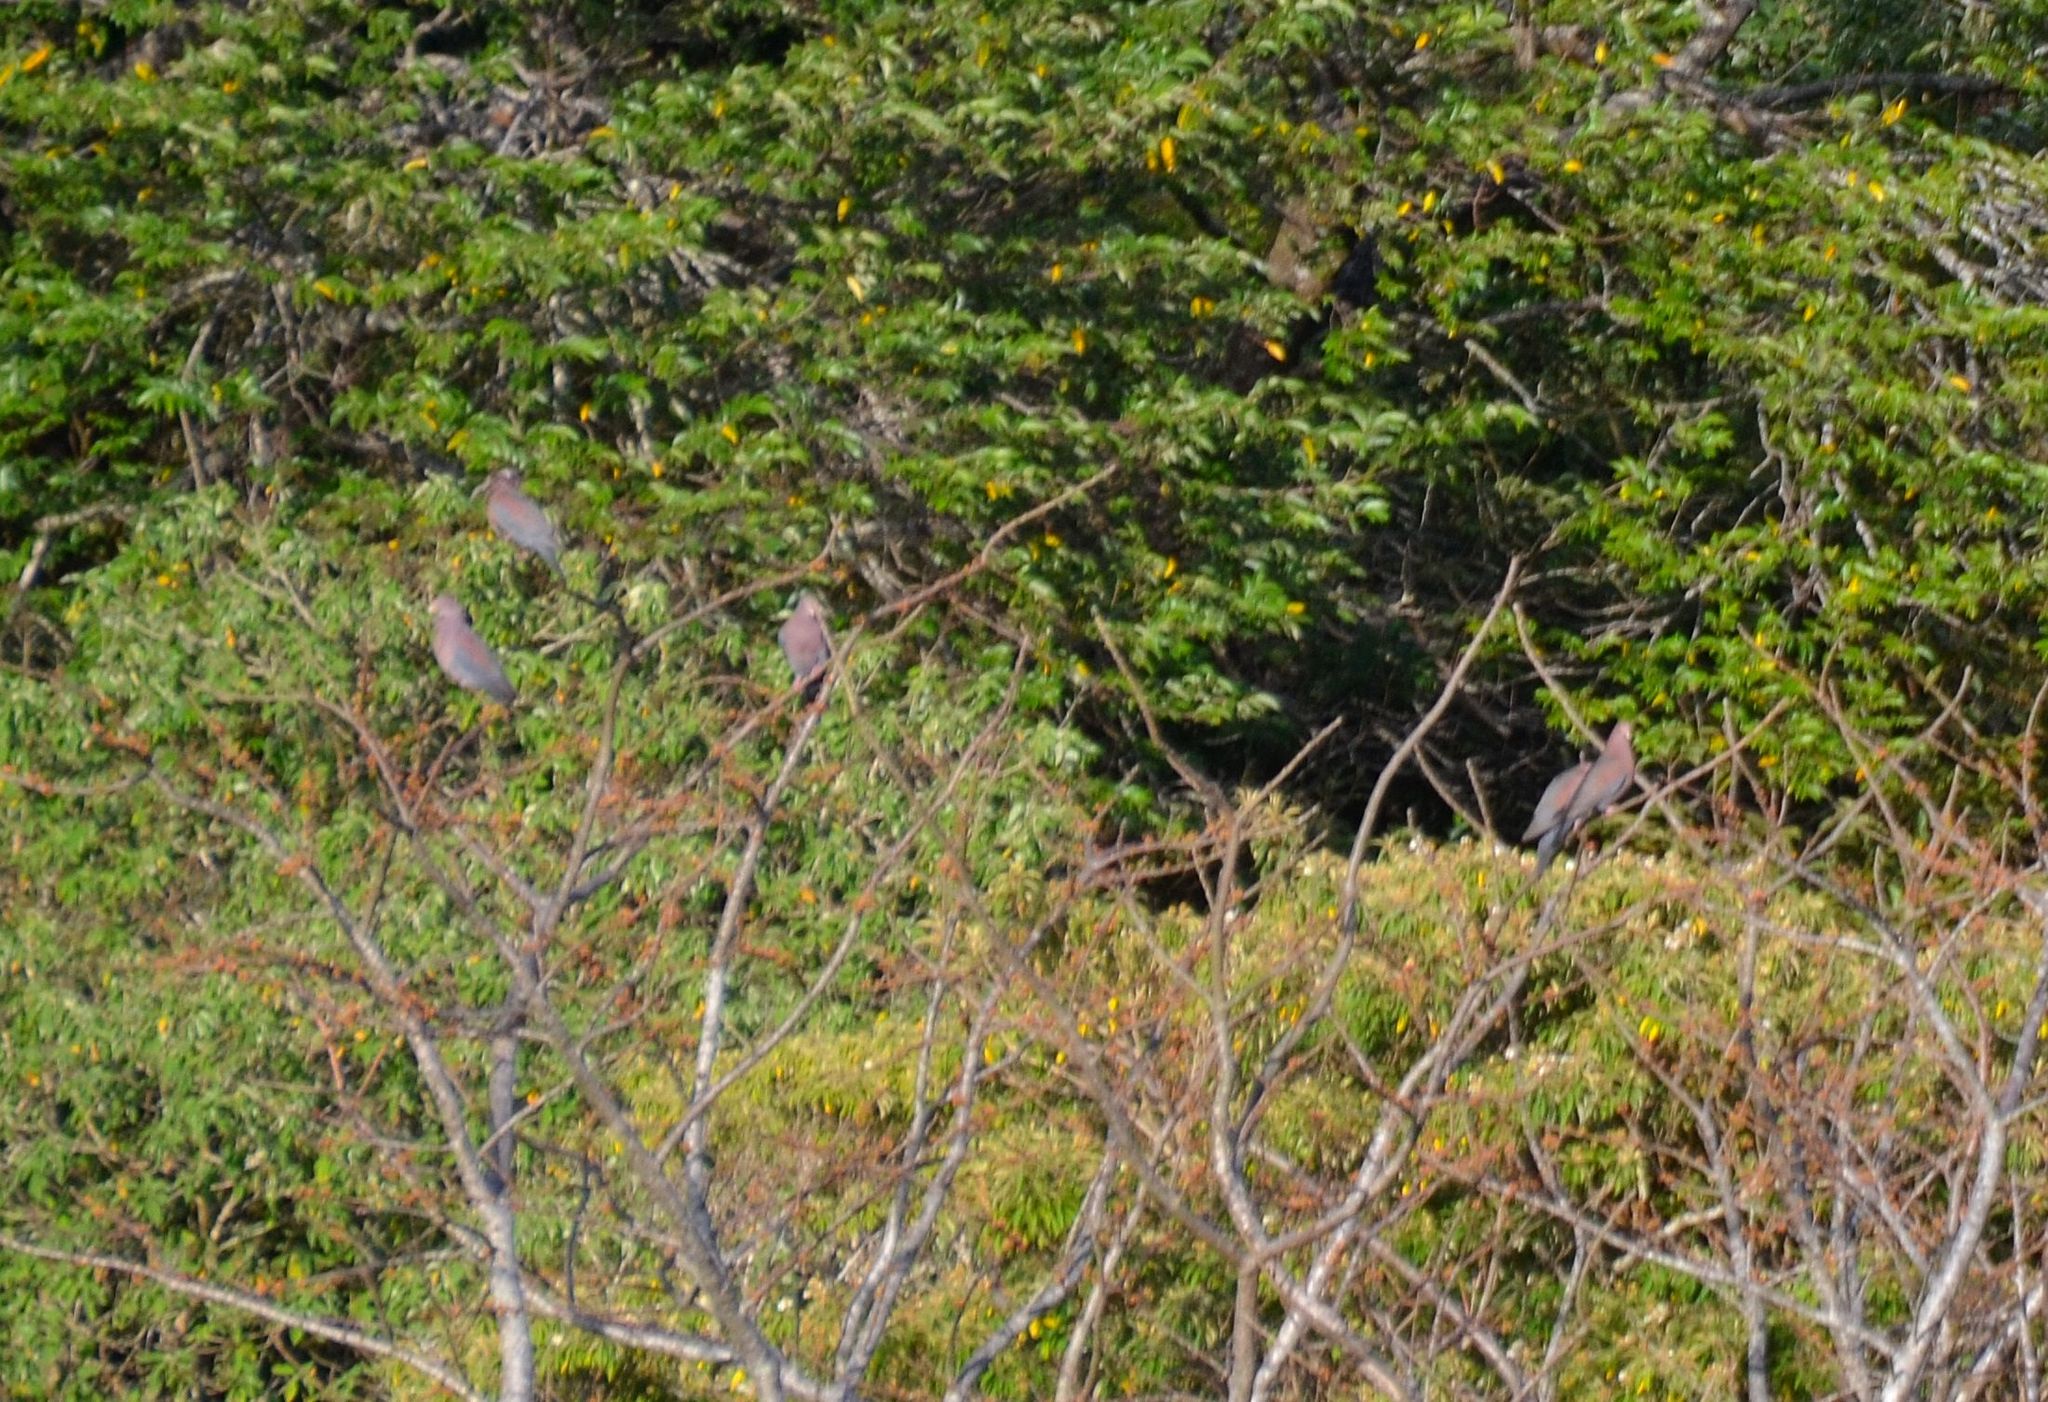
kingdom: Animalia
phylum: Chordata
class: Aves
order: Columbiformes
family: Columbidae
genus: Patagioenas
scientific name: Patagioenas flavirostris
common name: Red-billed pigeon
